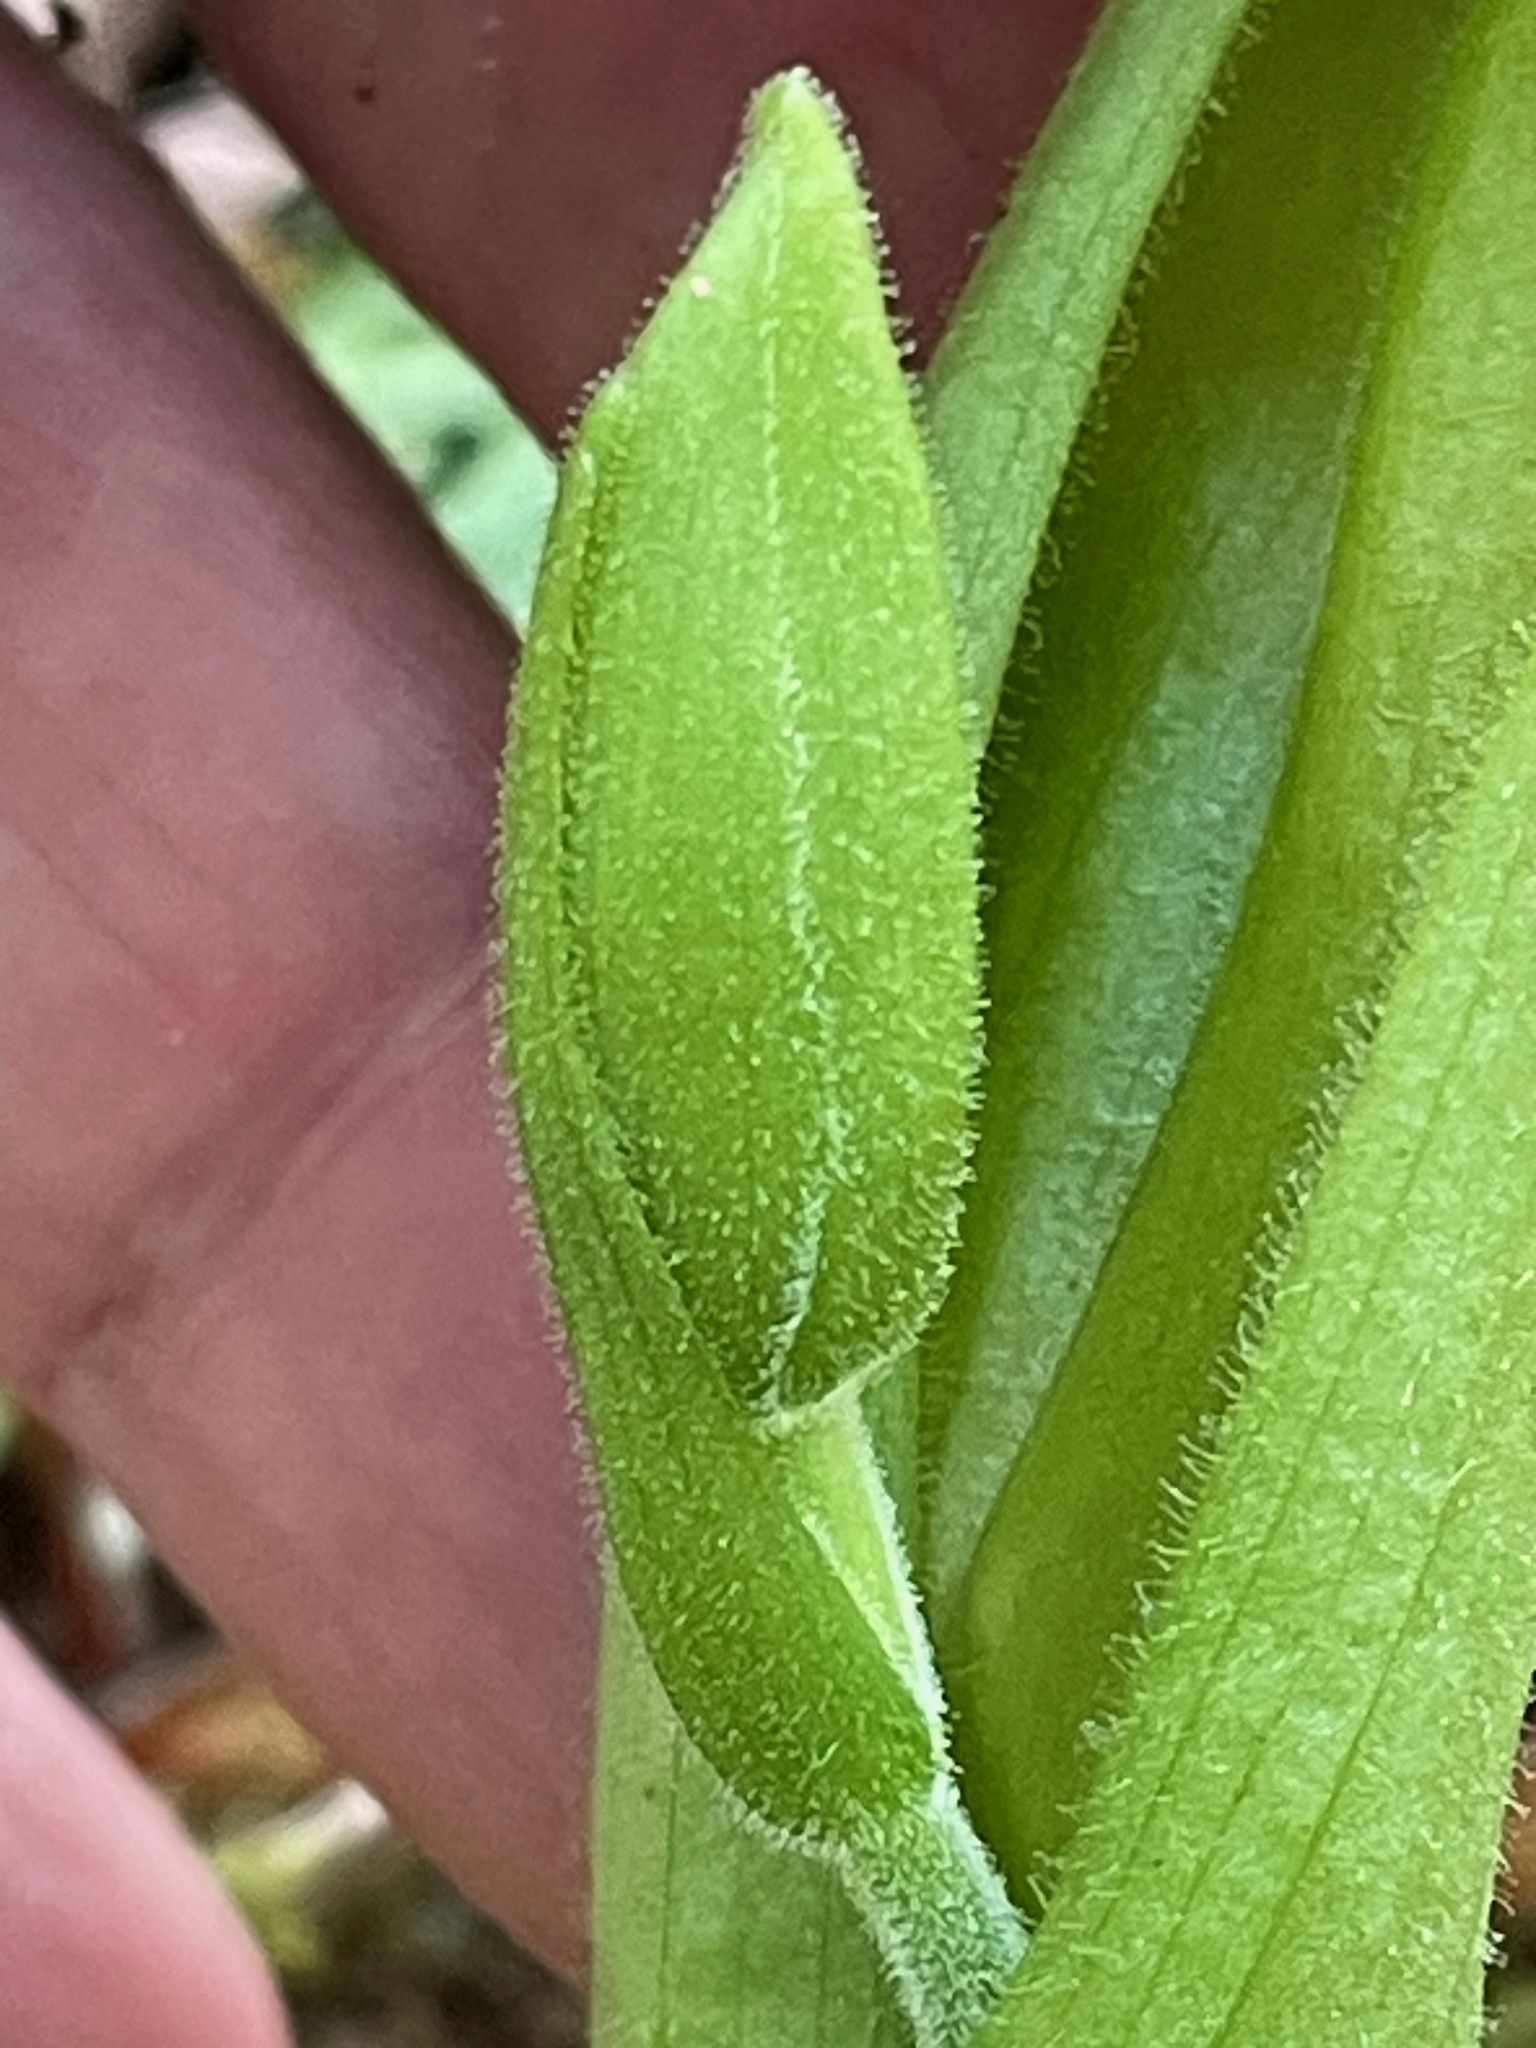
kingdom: Plantae
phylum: Tracheophyta
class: Liliopsida
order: Asparagales
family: Orchidaceae
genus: Cypripedium
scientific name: Cypripedium acaule
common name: Pink lady's-slipper
